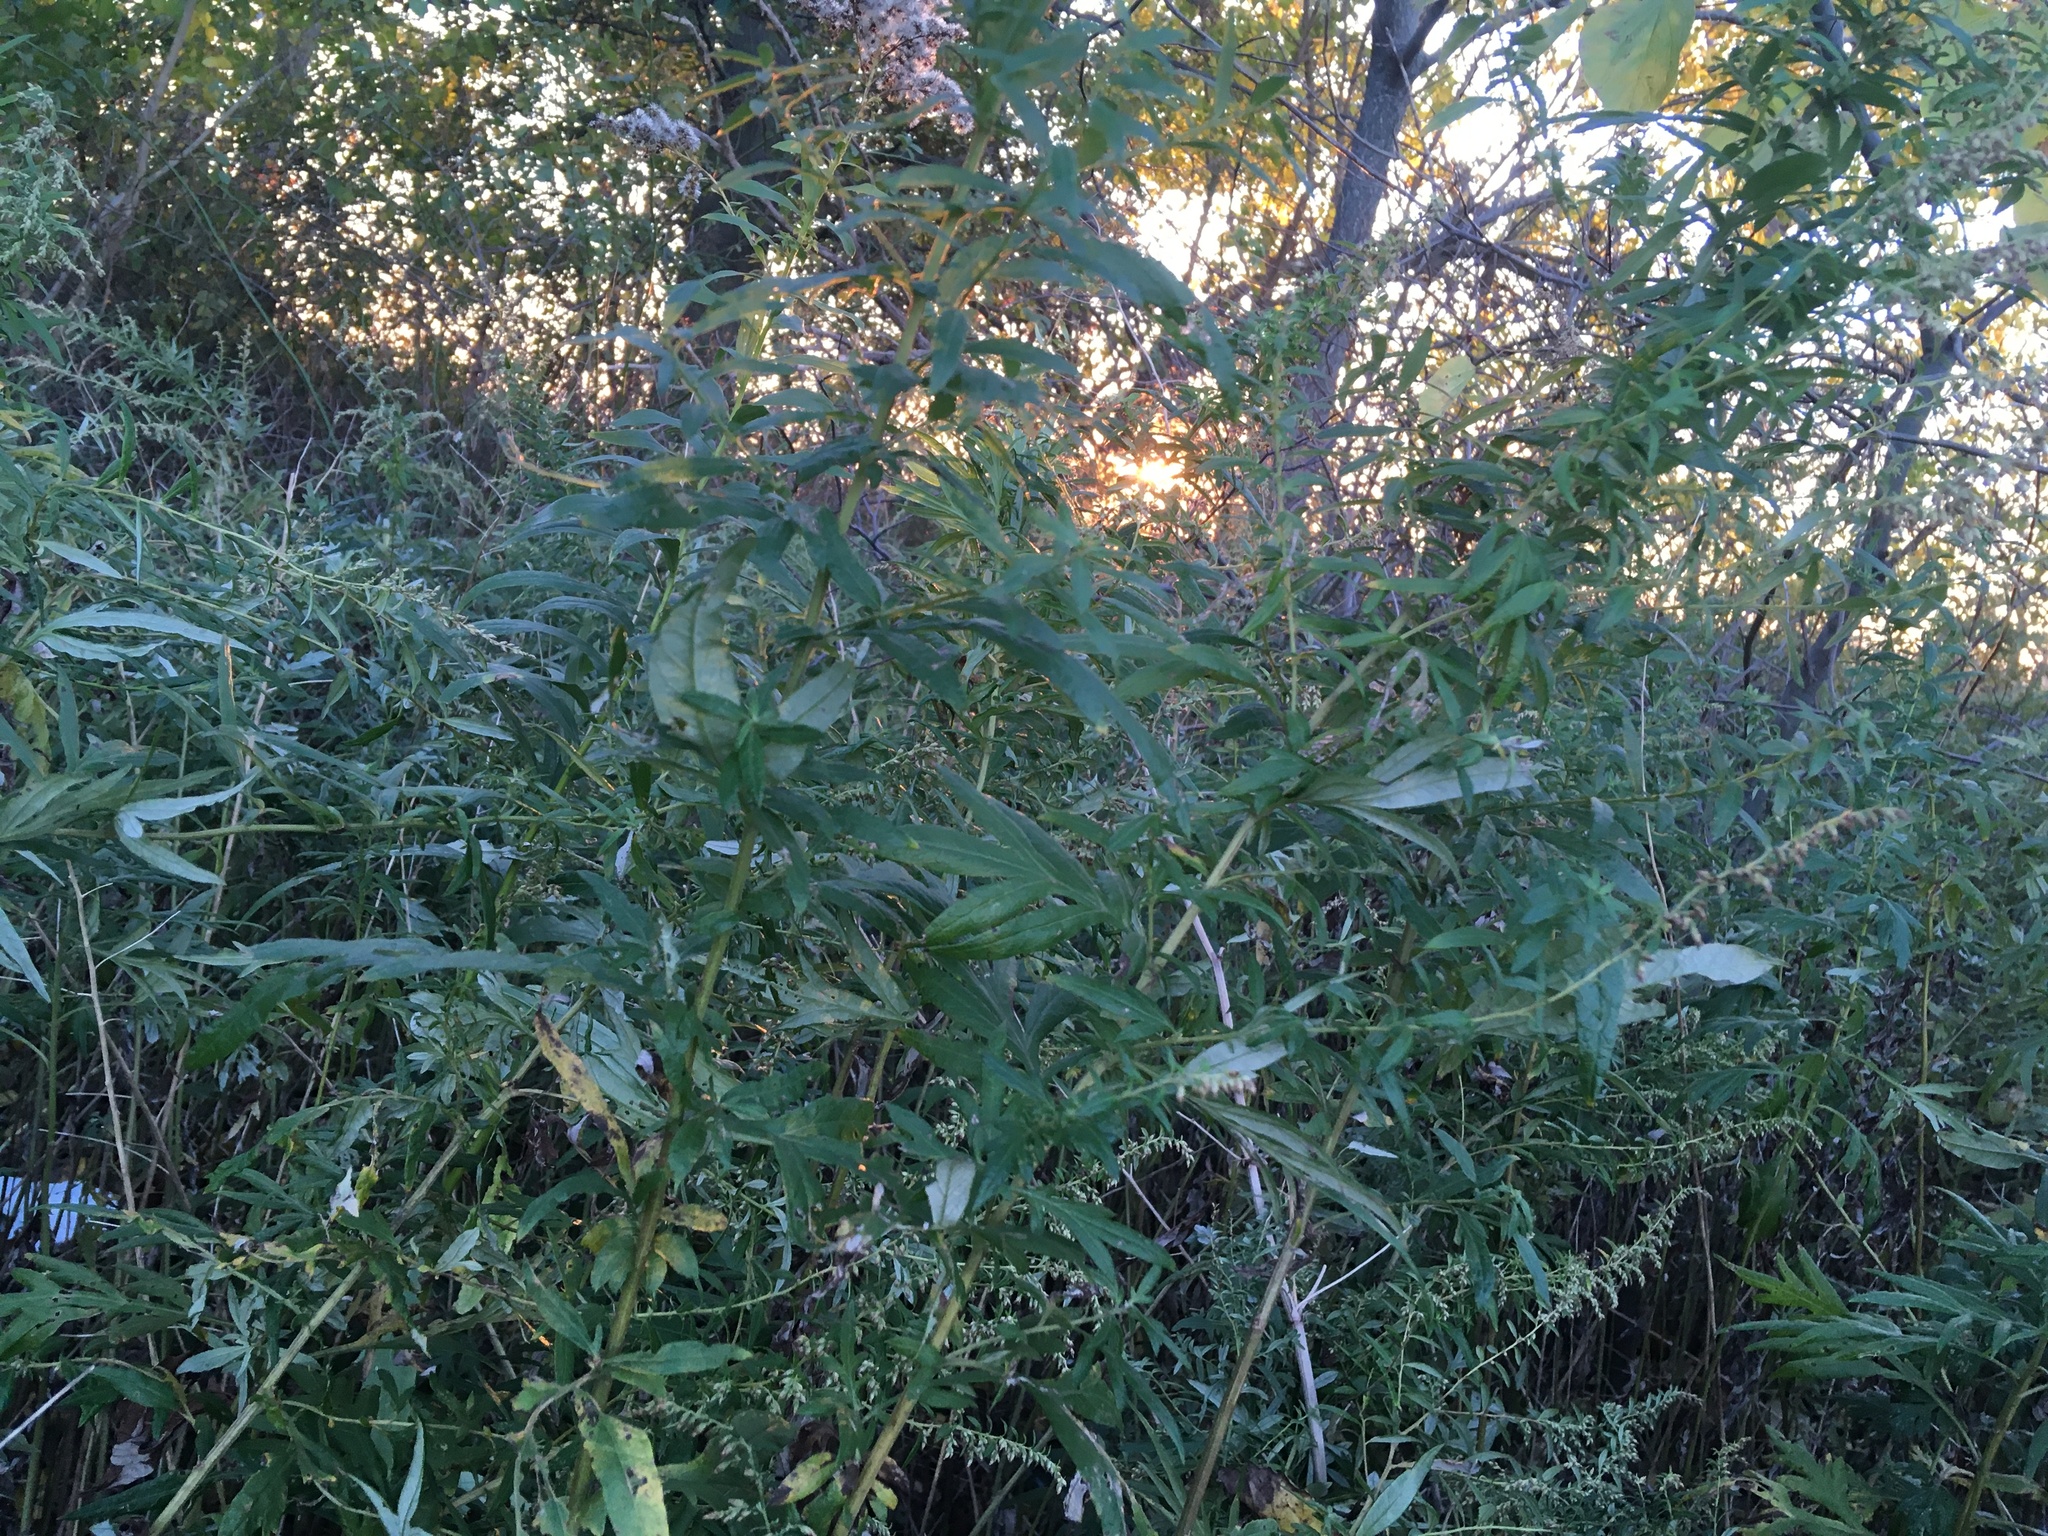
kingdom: Plantae
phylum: Tracheophyta
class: Magnoliopsida
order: Asterales
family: Asteraceae
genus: Artemisia
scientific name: Artemisia vulgaris
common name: Mugwort
